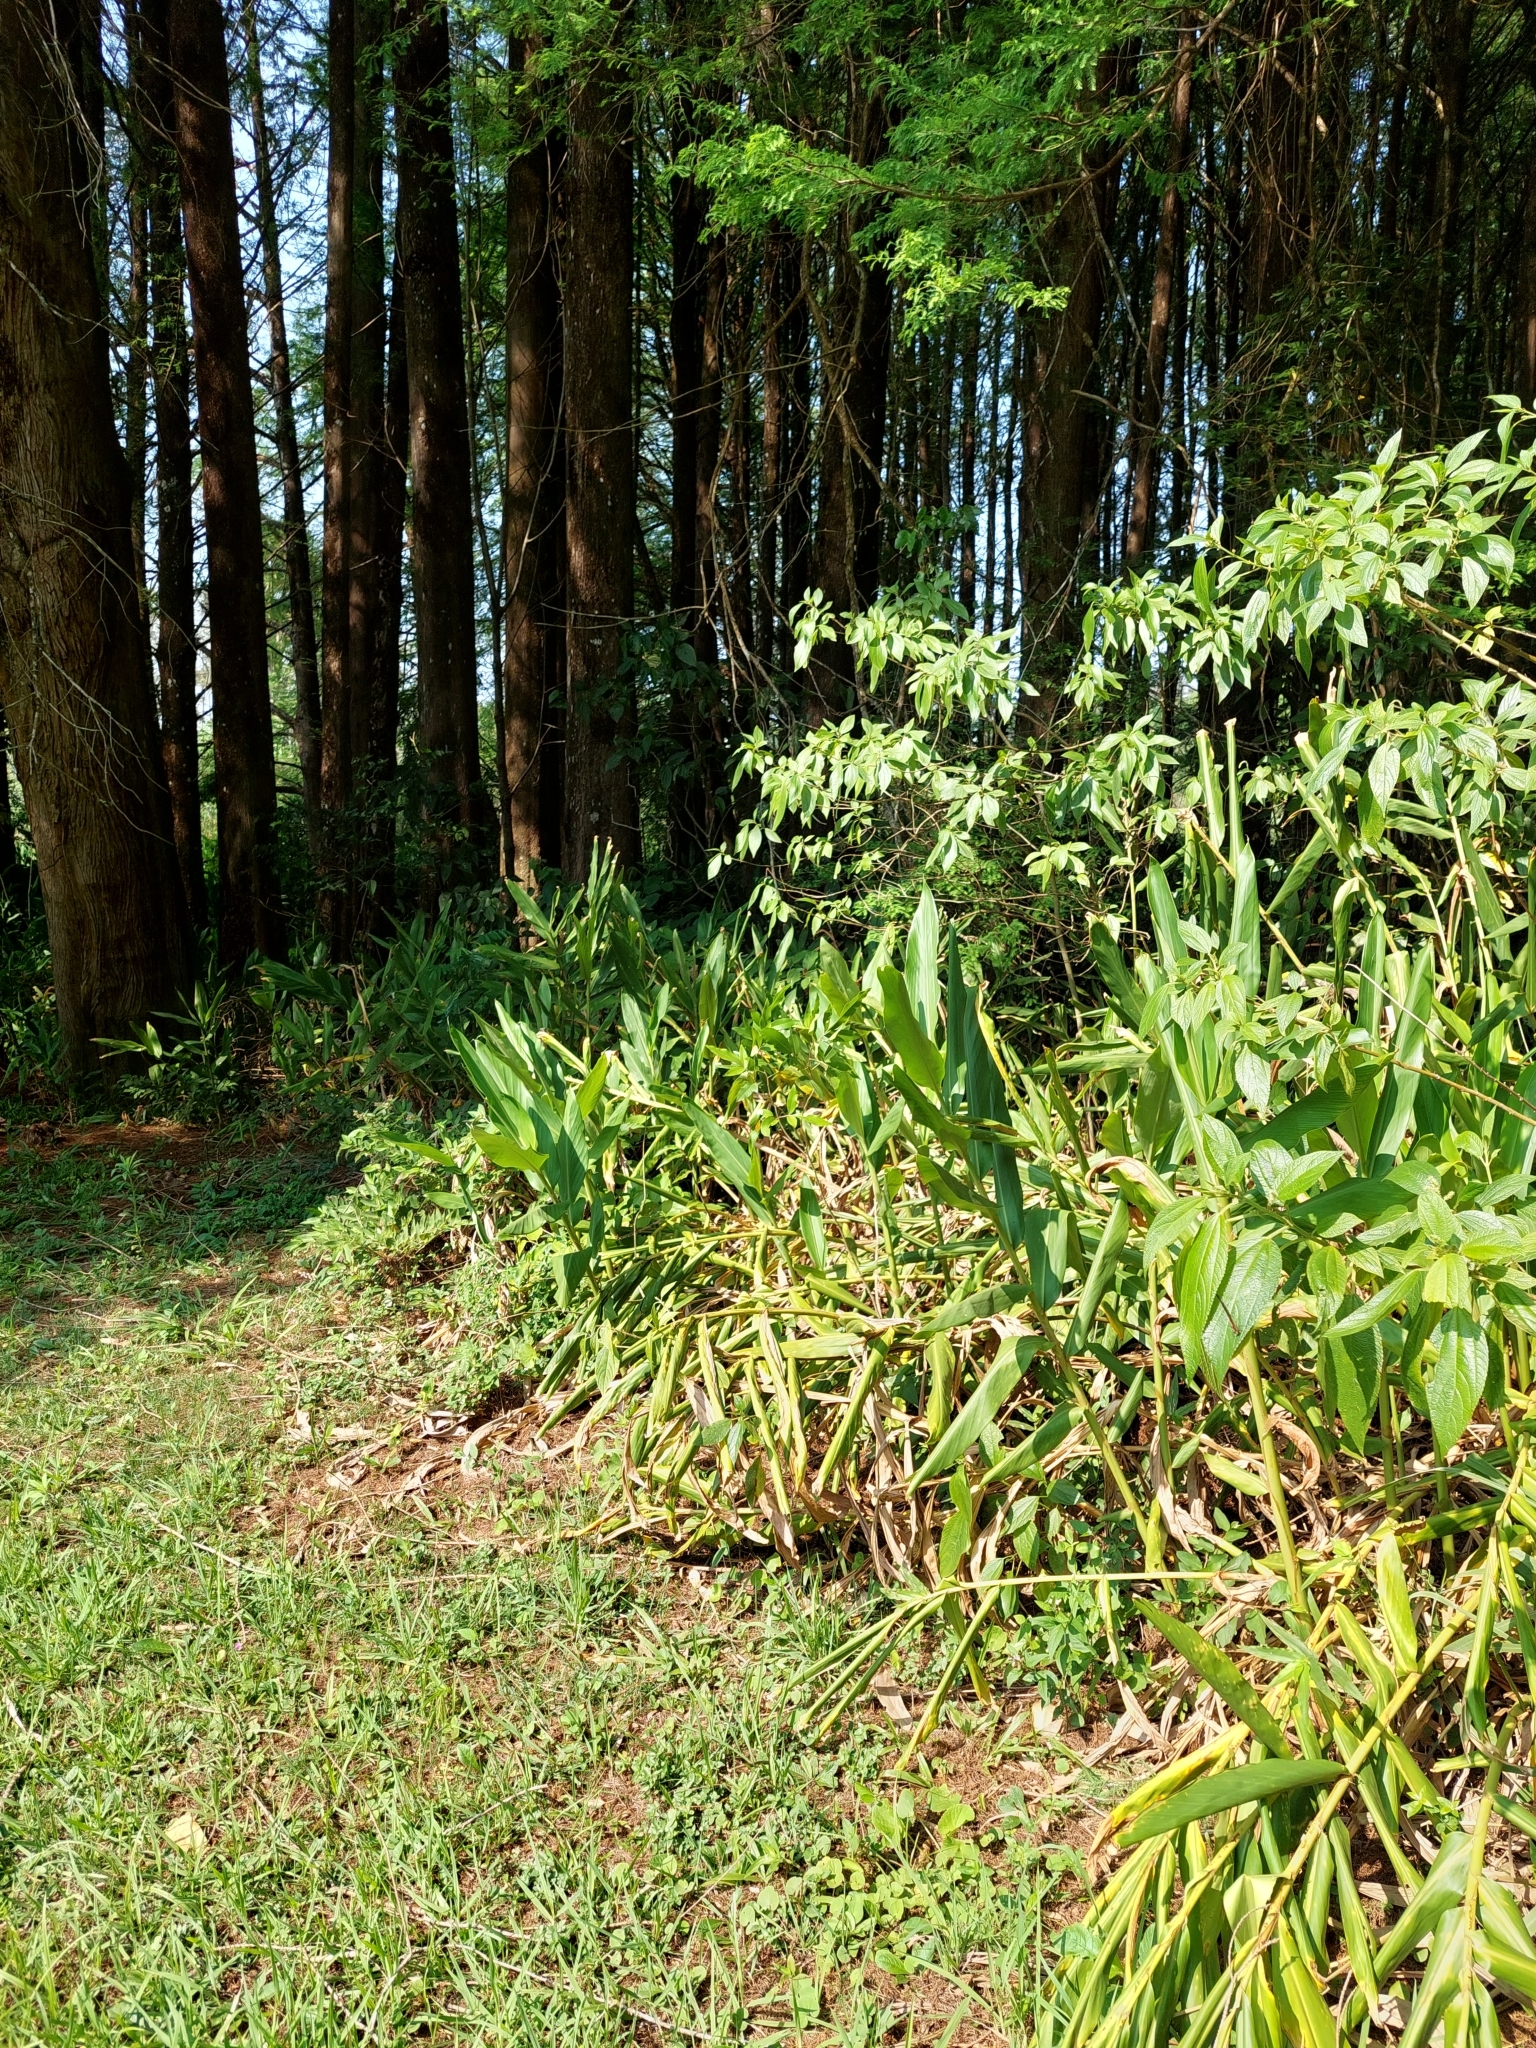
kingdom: Plantae
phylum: Tracheophyta
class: Liliopsida
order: Zingiberales
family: Zingiberaceae
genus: Hedychium
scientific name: Hedychium coronarium
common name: White garland-lily
